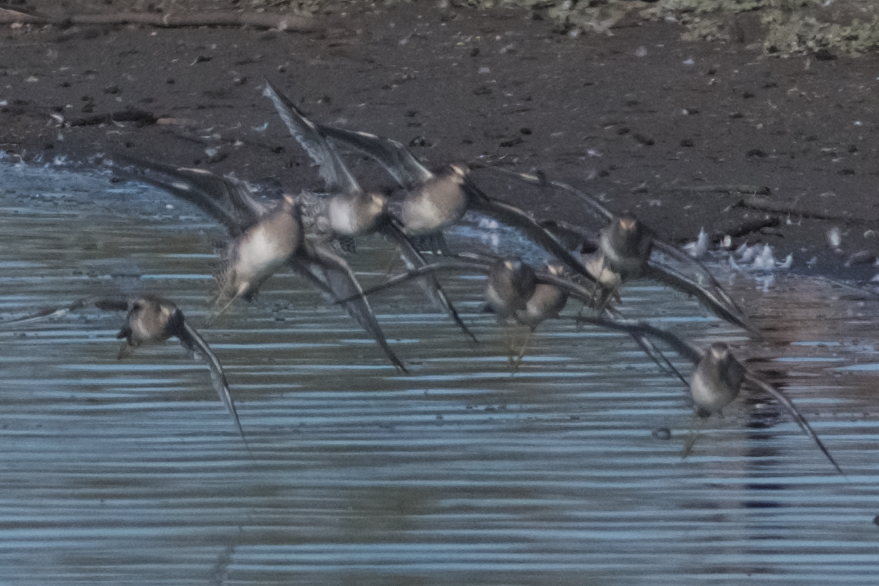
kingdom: Animalia
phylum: Chordata
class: Aves
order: Charadriiformes
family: Scolopacidae
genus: Limnodromus
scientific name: Limnodromus
